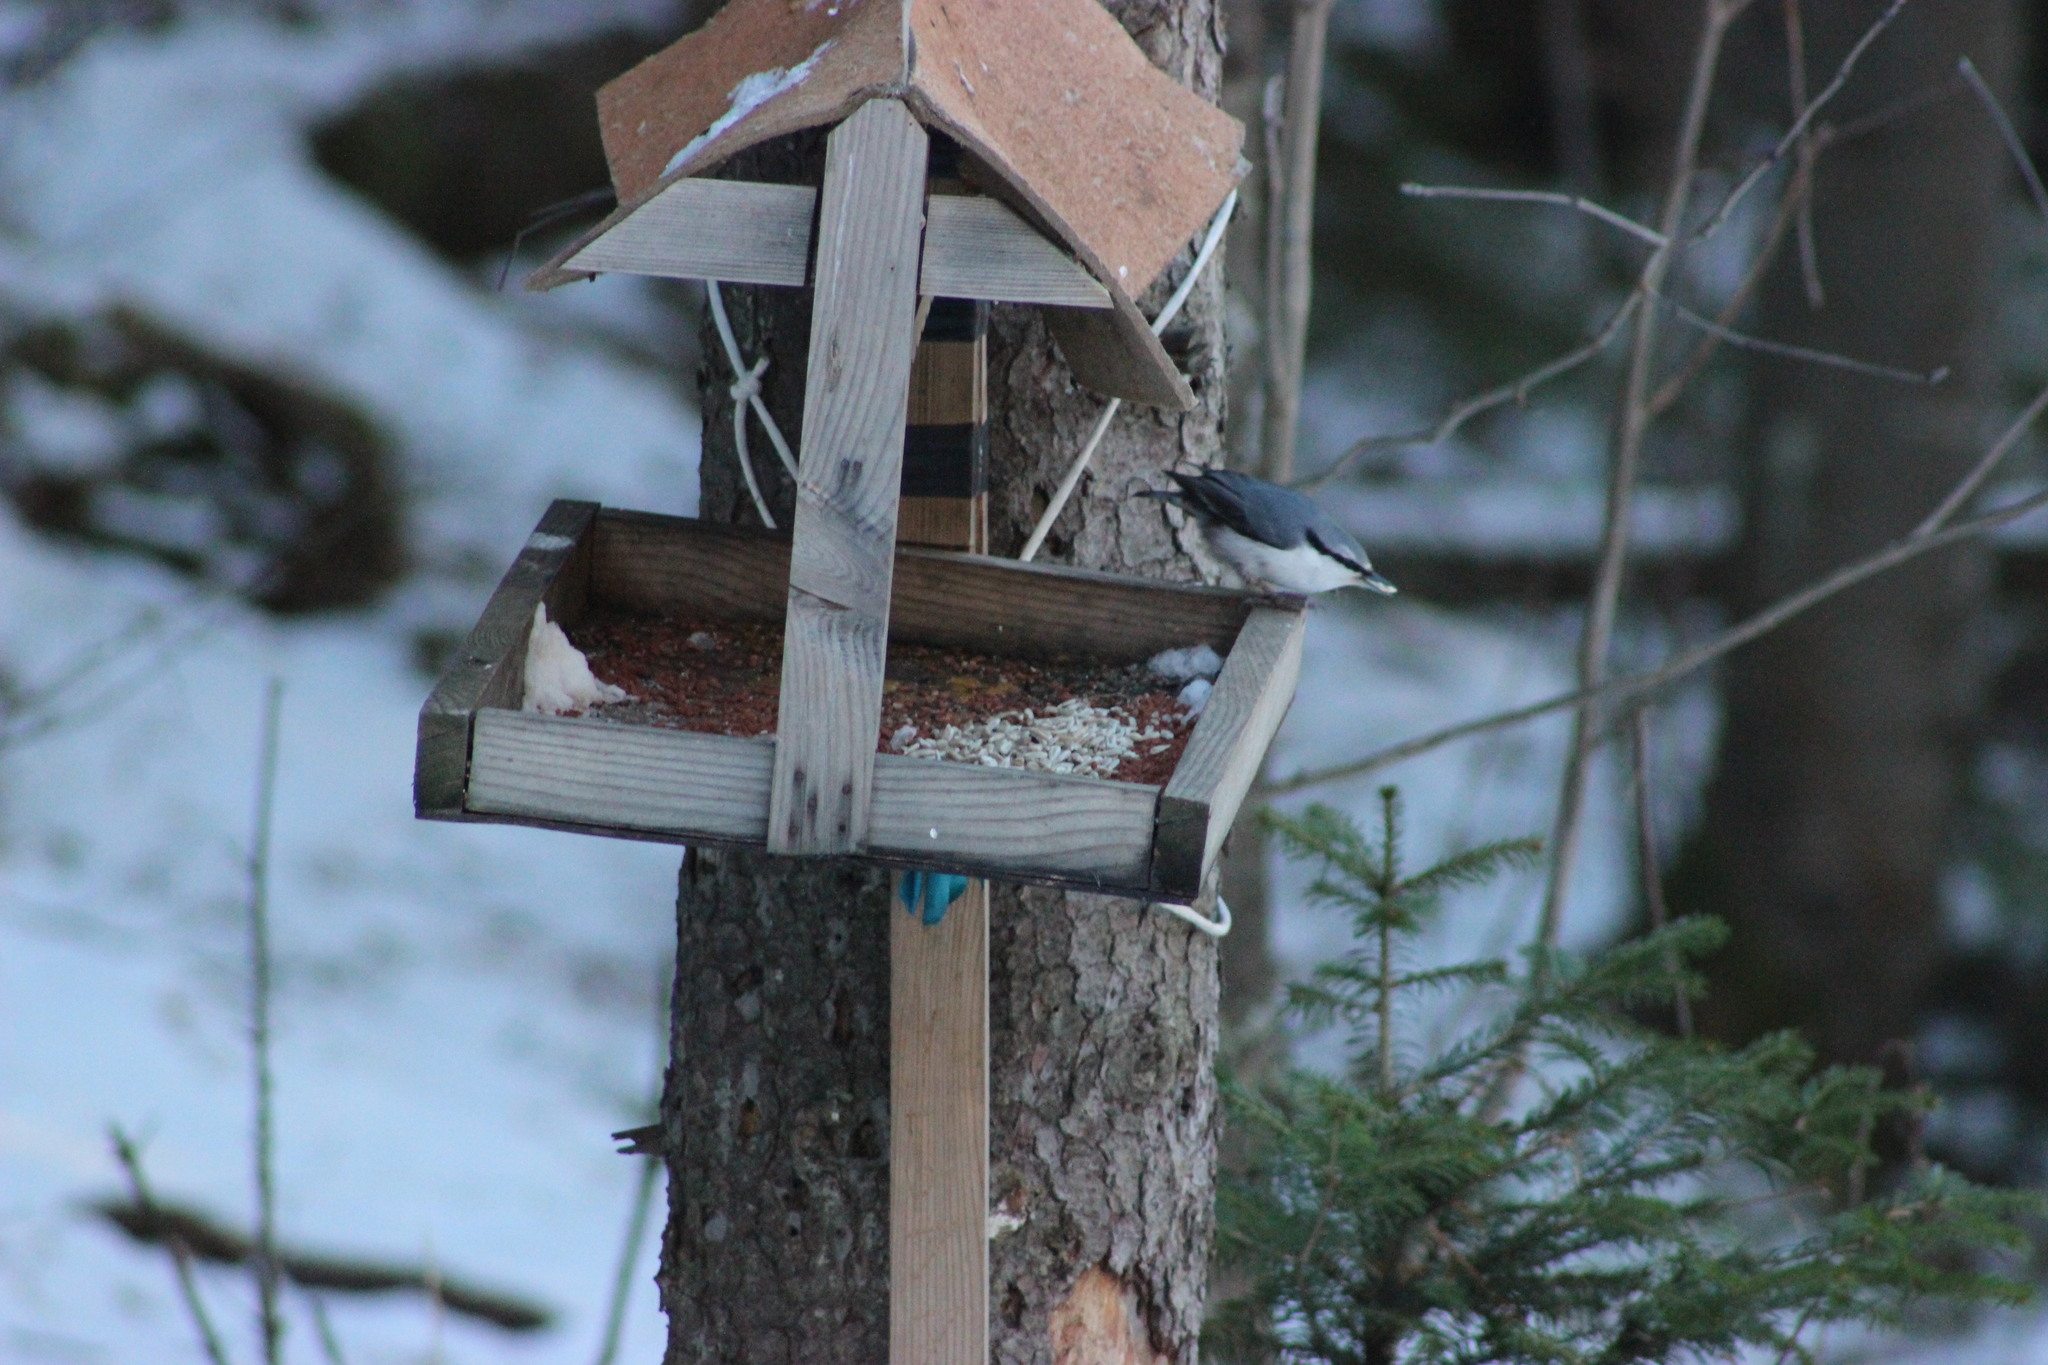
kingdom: Animalia
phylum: Chordata
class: Aves
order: Passeriformes
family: Sittidae
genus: Sitta
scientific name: Sitta europaea
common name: Eurasian nuthatch
